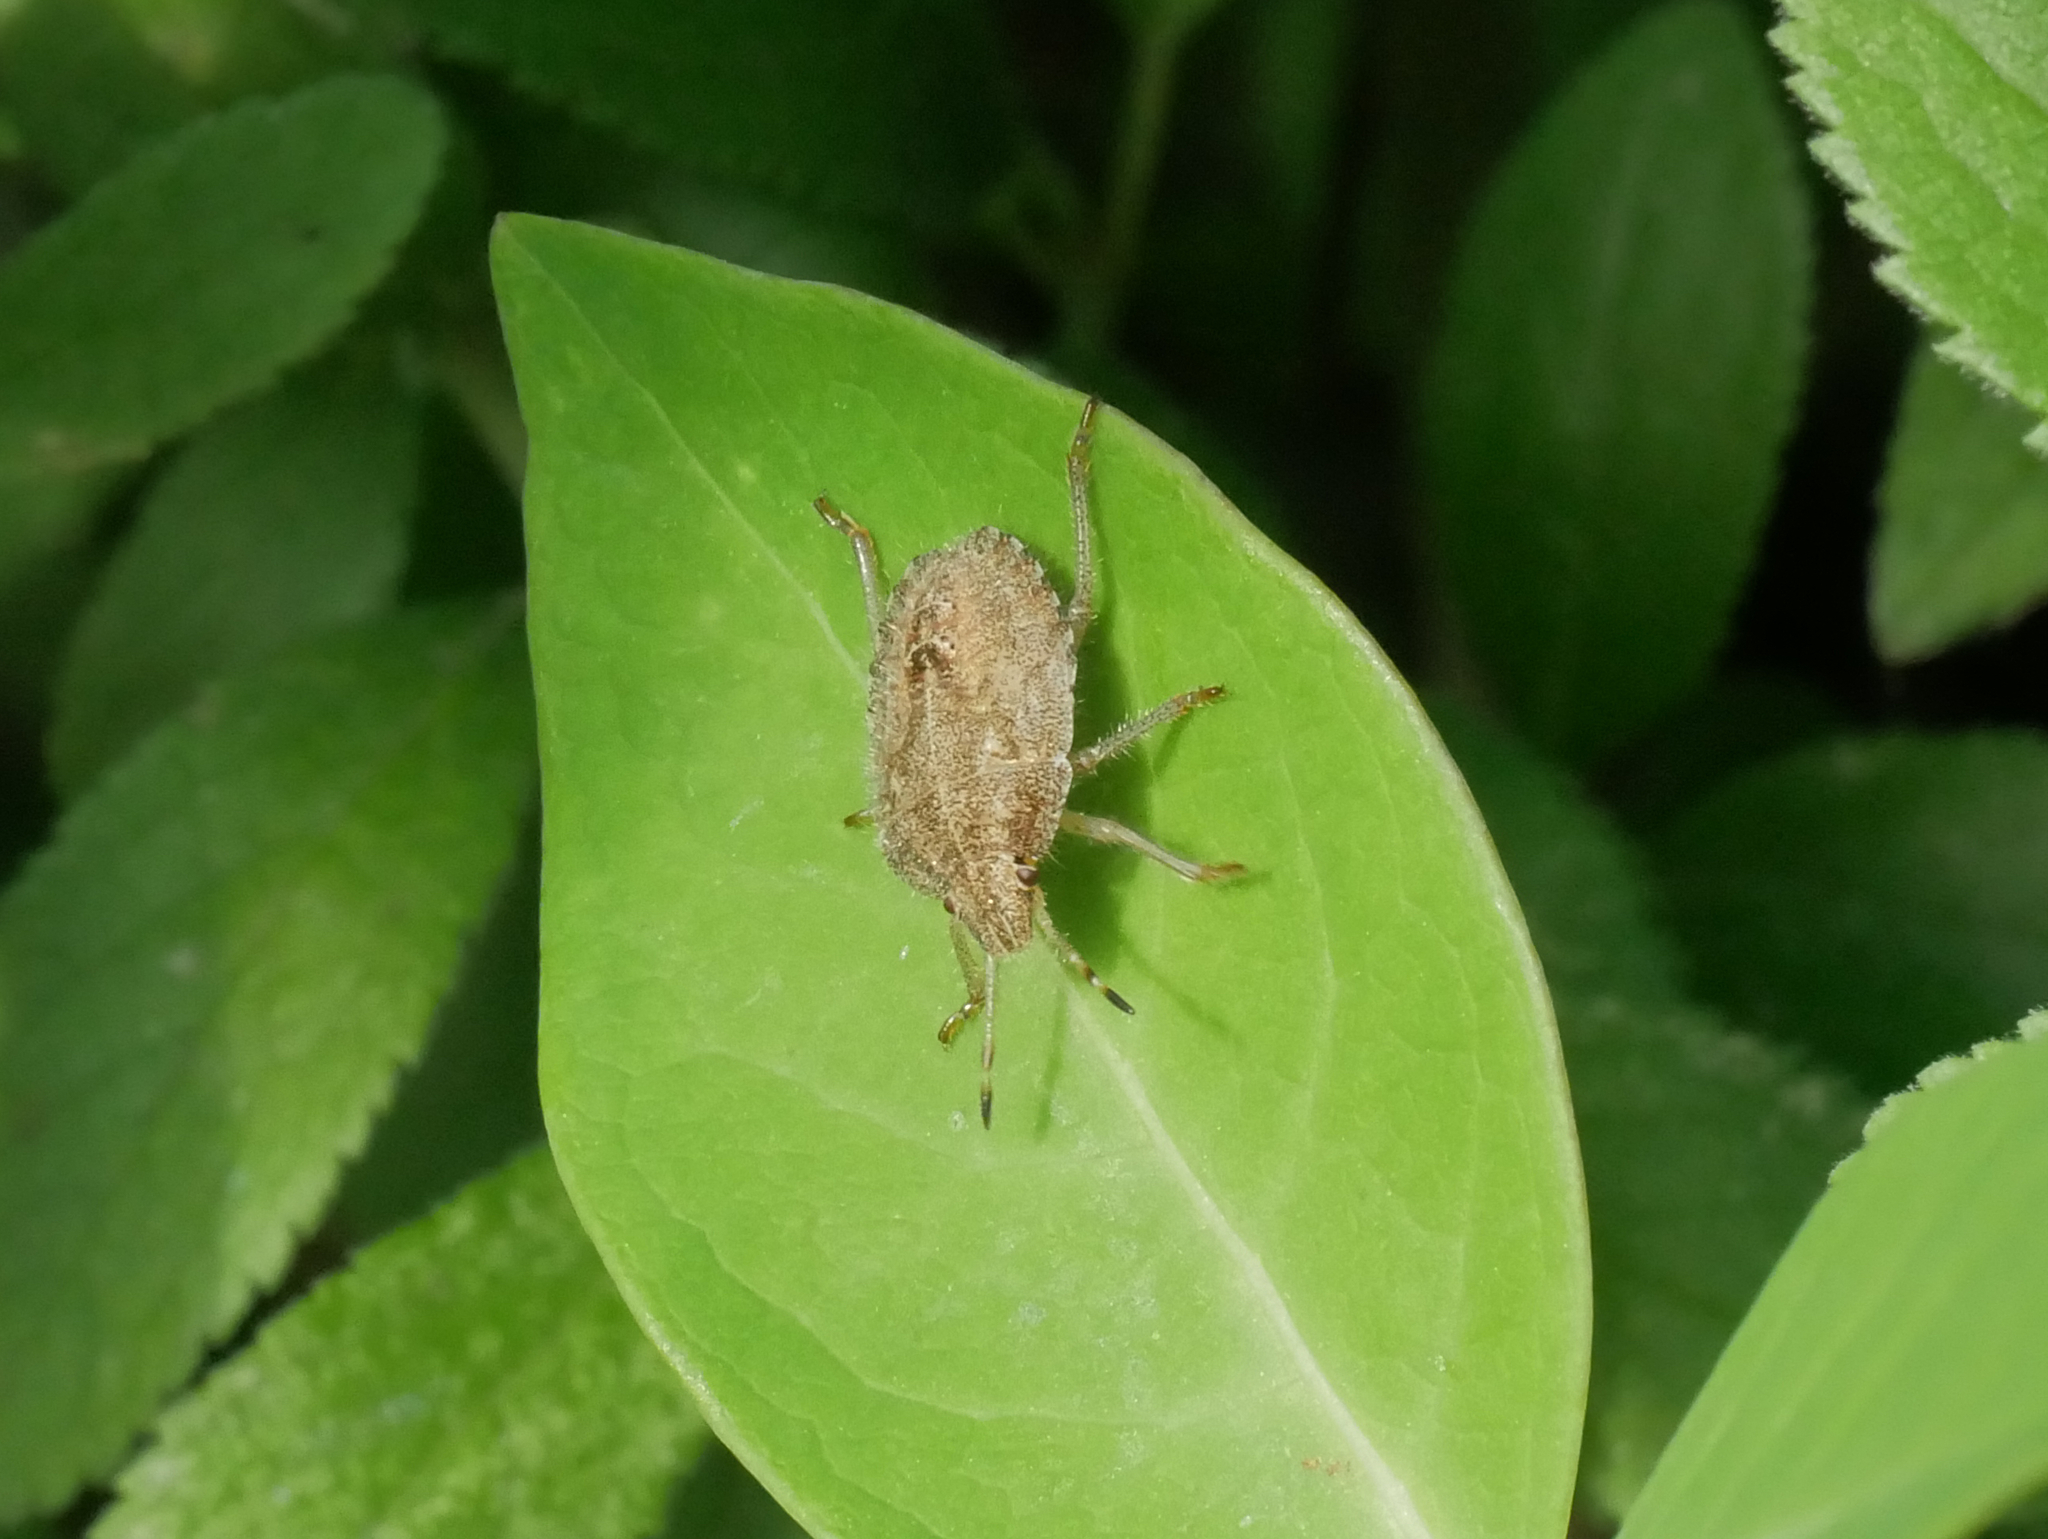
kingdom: Animalia
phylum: Arthropoda
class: Insecta
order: Hemiptera
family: Pentatomidae
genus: Dolycoris
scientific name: Dolycoris baccarum
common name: Sloe bug
